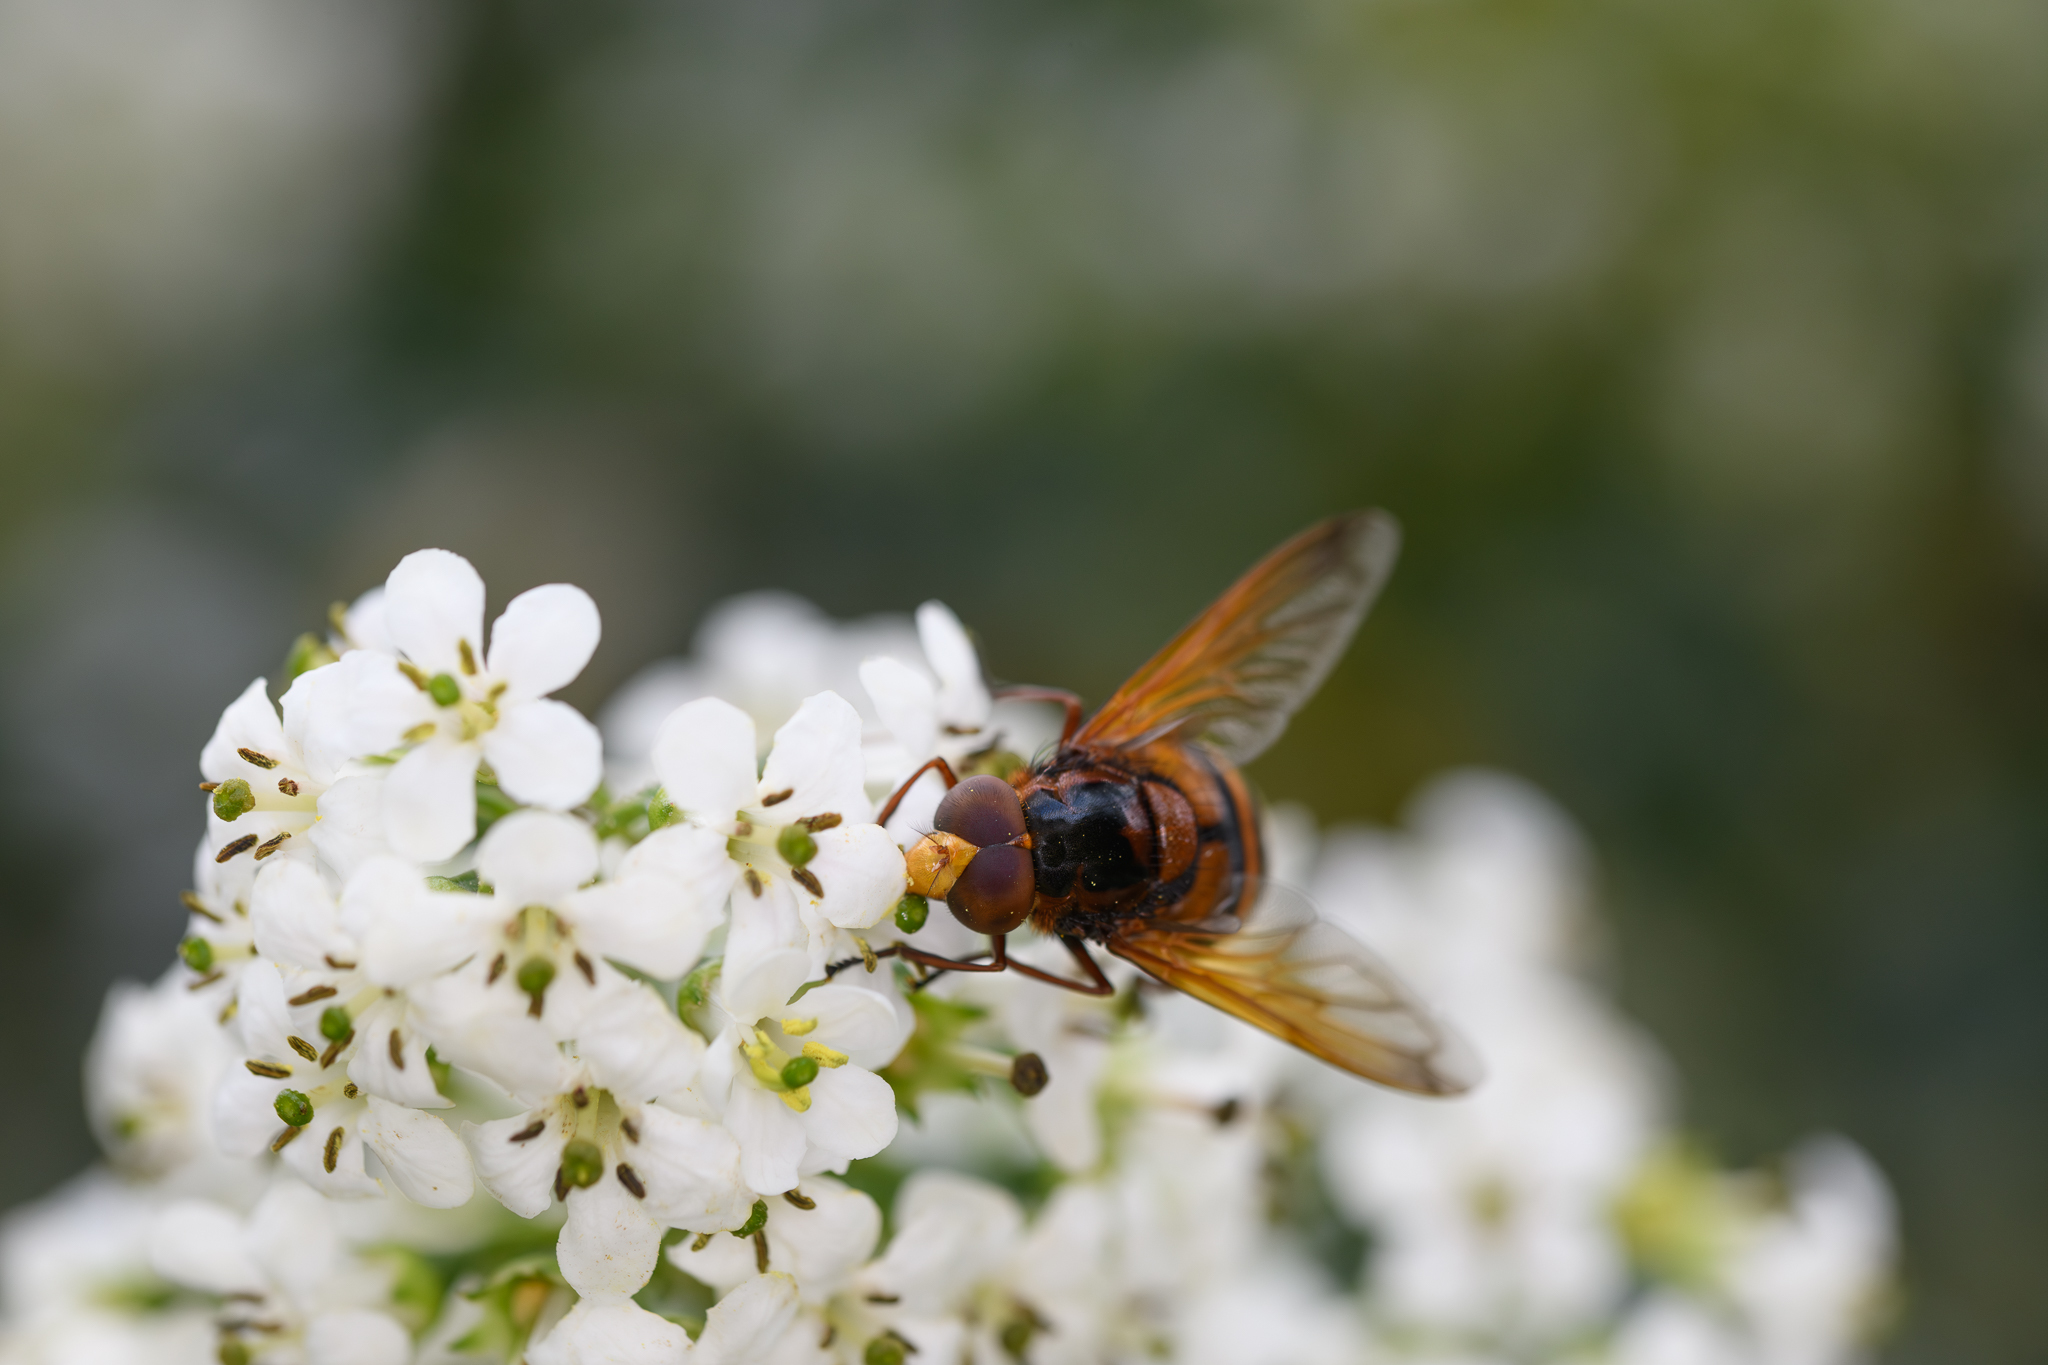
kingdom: Animalia
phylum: Arthropoda
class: Insecta
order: Diptera
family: Syrphidae
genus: Volucella
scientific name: Volucella zonaria
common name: Hornet hoverfly
